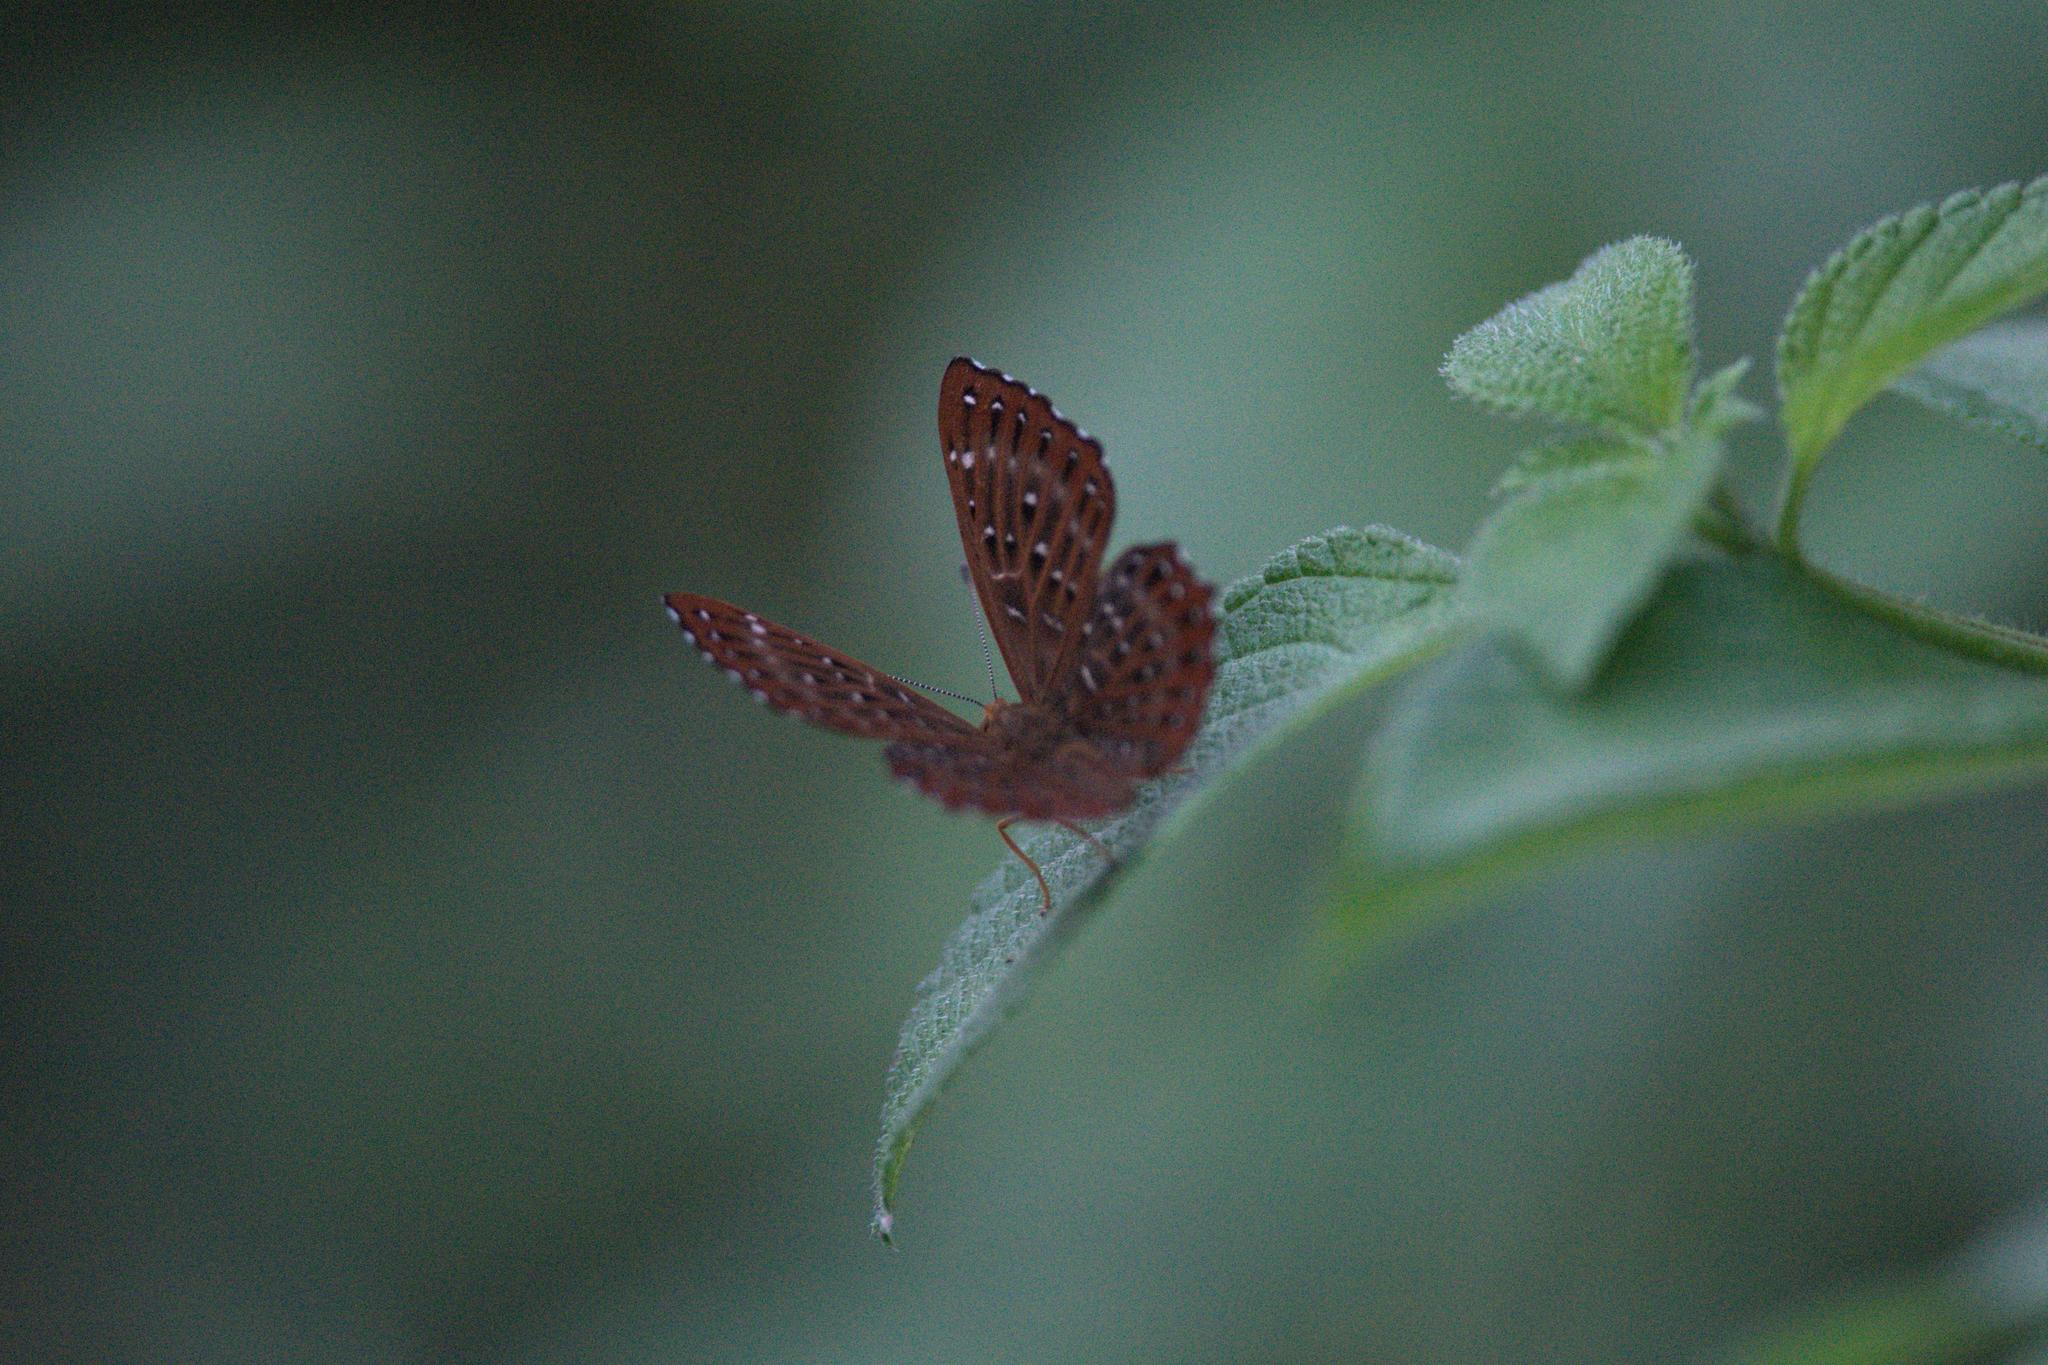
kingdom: Animalia
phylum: Arthropoda
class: Insecta
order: Lepidoptera
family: Riodinidae
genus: Zemeros
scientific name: Zemeros flegyas
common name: Punchinello
